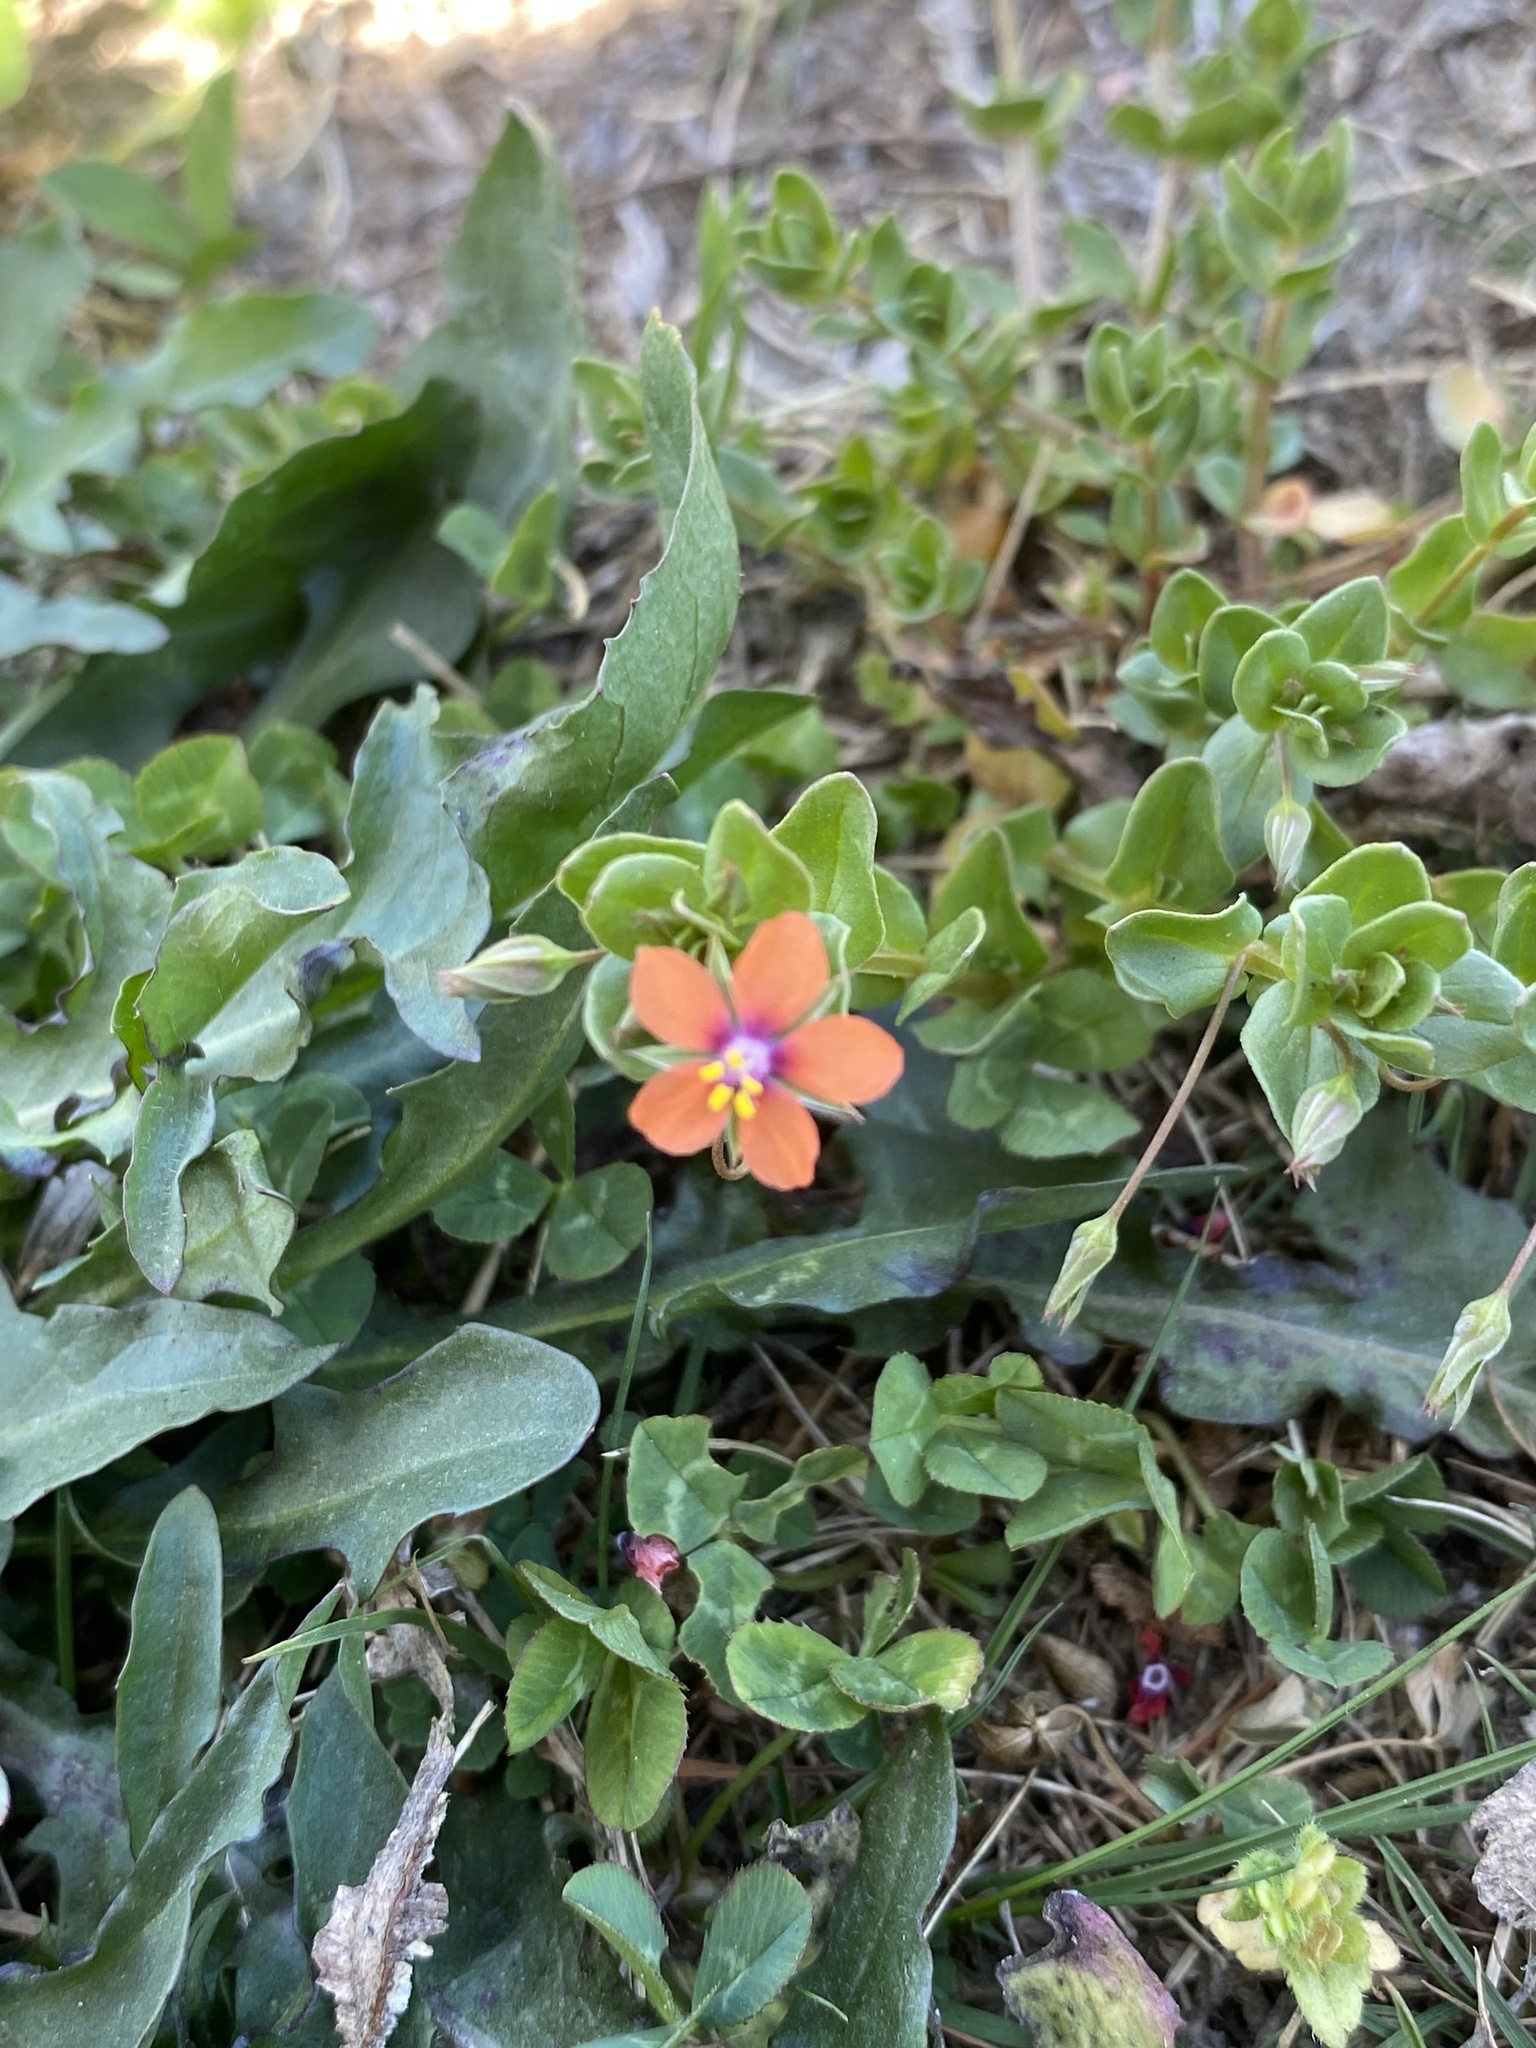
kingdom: Plantae
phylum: Tracheophyta
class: Magnoliopsida
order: Ericales
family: Primulaceae
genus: Lysimachia
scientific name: Lysimachia arvensis
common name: Scarlet pimpernel
